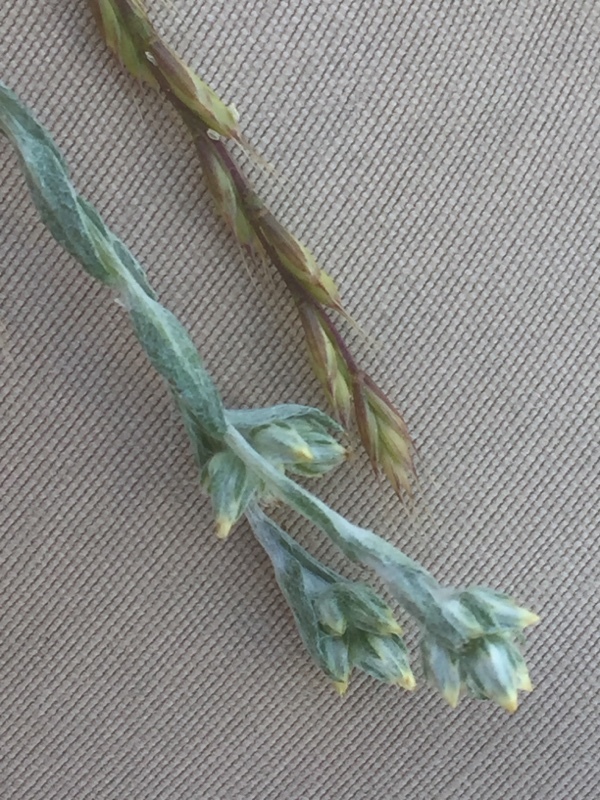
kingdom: Plantae
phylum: Tracheophyta
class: Magnoliopsida
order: Asterales
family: Asteraceae
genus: Logfia
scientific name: Logfia minima
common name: Little cottonrose
